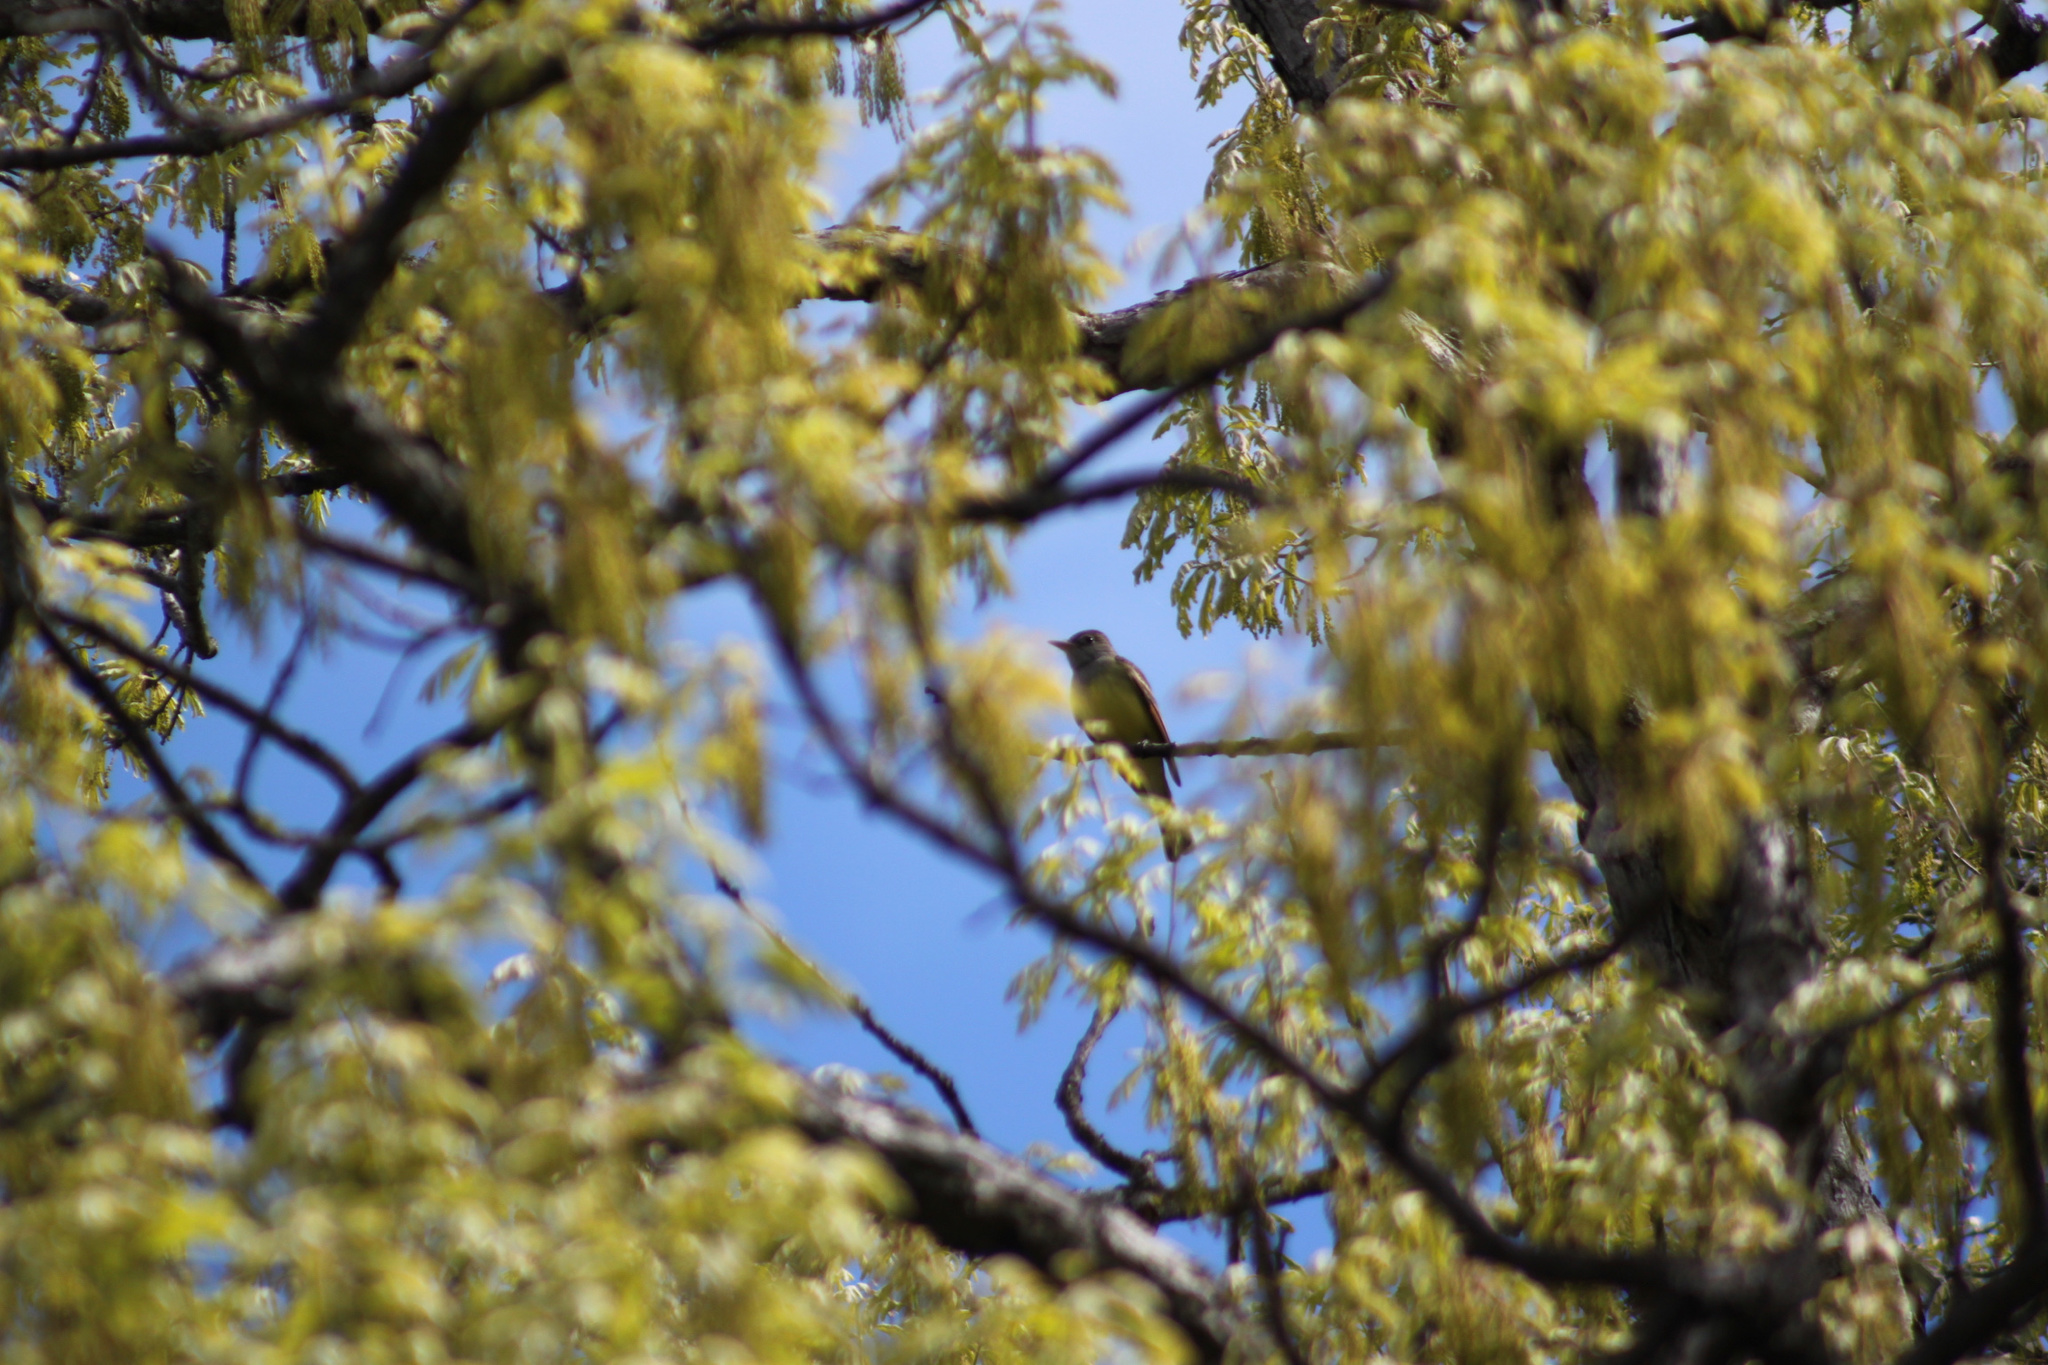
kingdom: Animalia
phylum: Chordata
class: Aves
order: Passeriformes
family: Tyrannidae
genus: Myiarchus
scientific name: Myiarchus crinitus
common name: Great crested flycatcher
